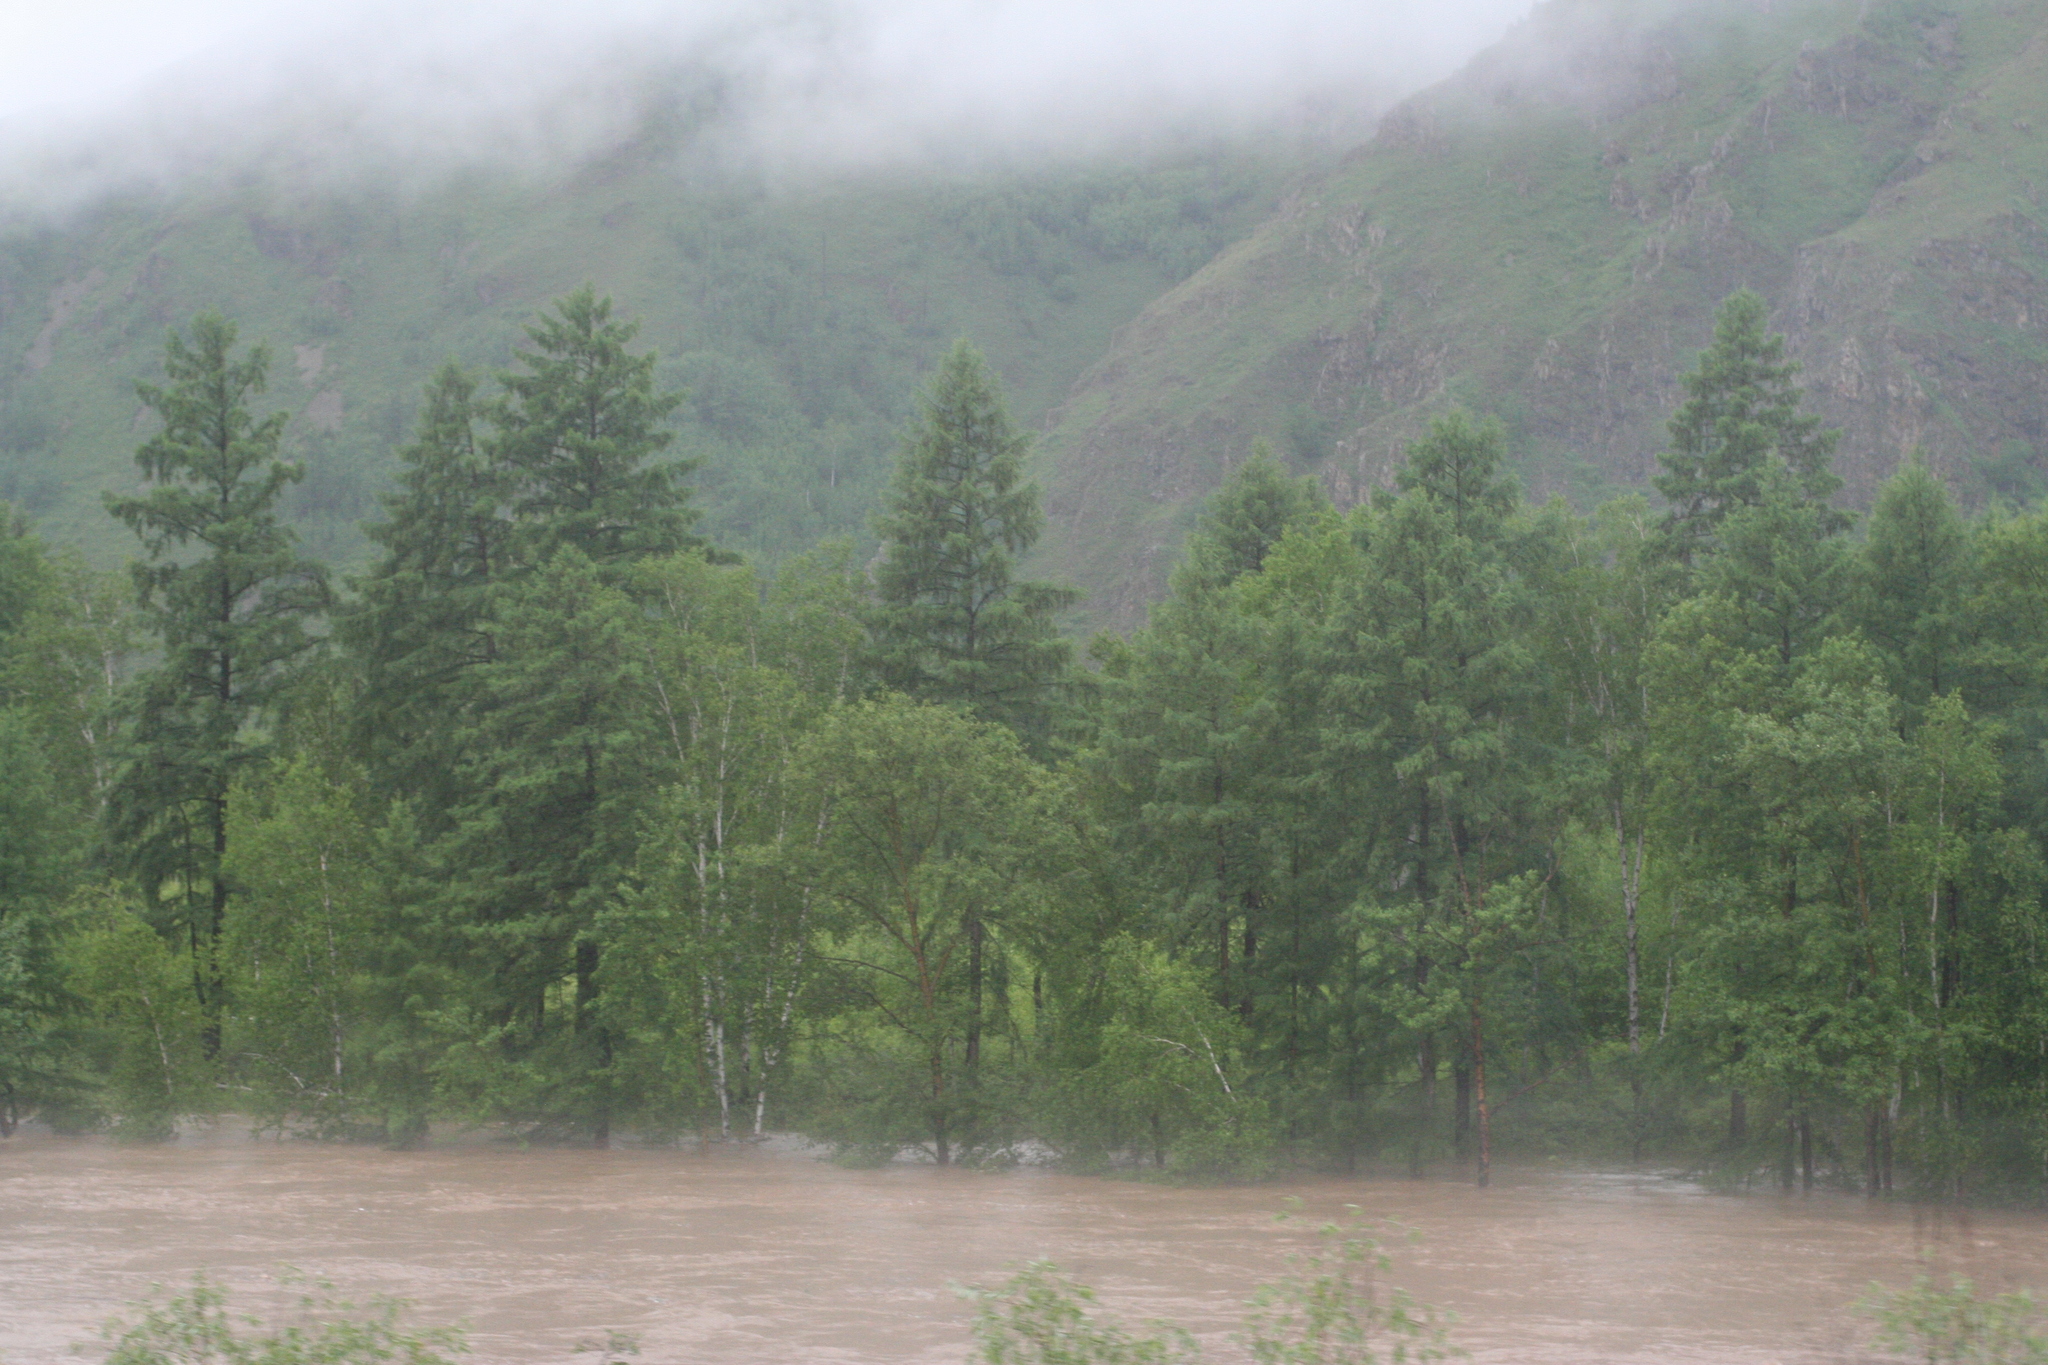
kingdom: Plantae
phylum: Tracheophyta
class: Pinopsida
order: Pinales
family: Pinaceae
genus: Larix
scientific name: Larix gmelinii
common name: Dahurian larch
